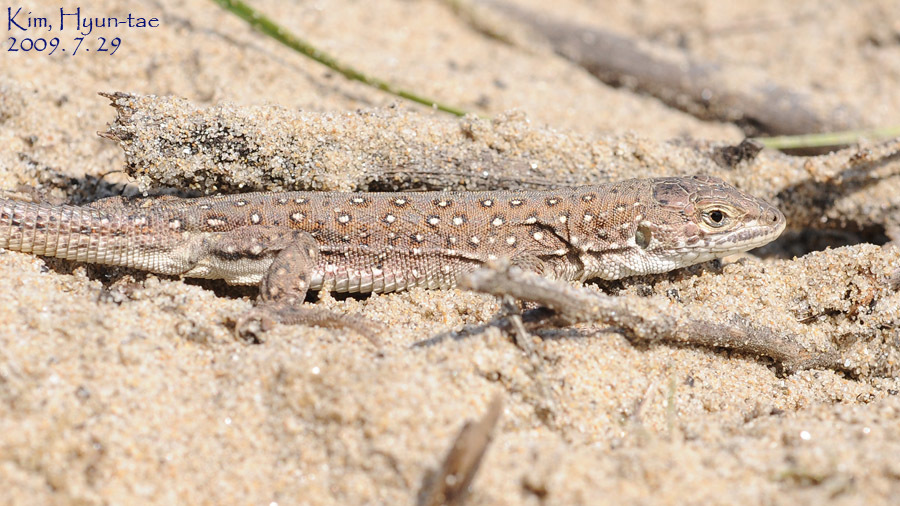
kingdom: Animalia
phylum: Chordata
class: Squamata
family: Lacertidae
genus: Eremias
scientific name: Eremias argus
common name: Mongolia racerunner
